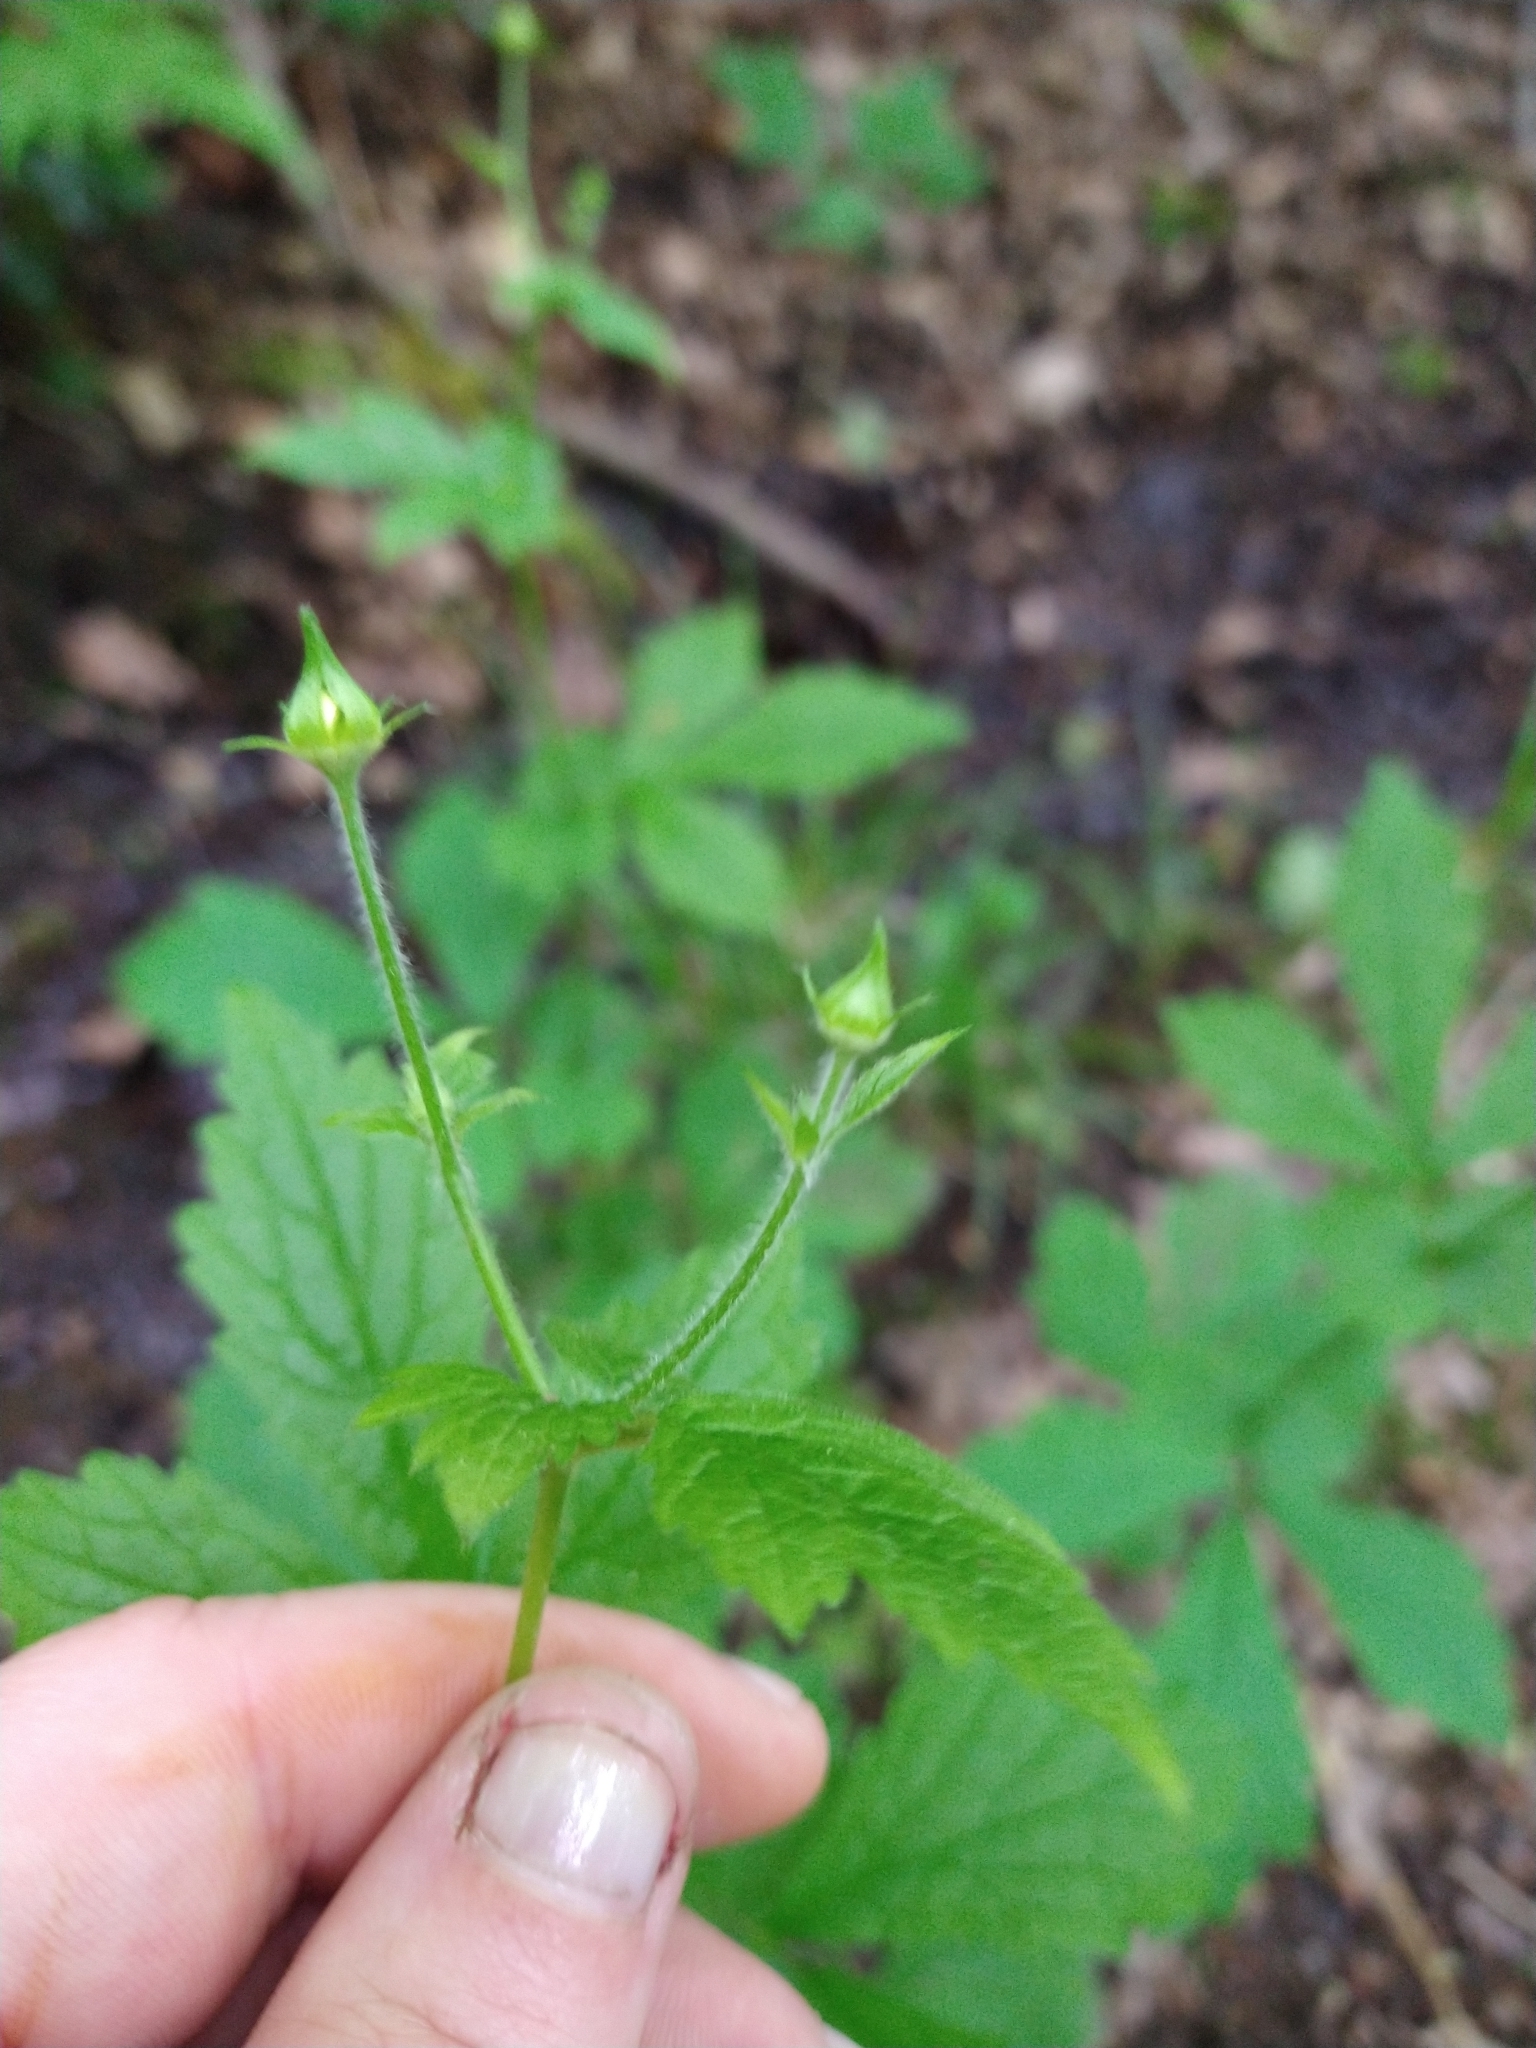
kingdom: Plantae
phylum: Tracheophyta
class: Magnoliopsida
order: Rosales
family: Rosaceae
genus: Geum
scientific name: Geum urbanum
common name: Wood avens
